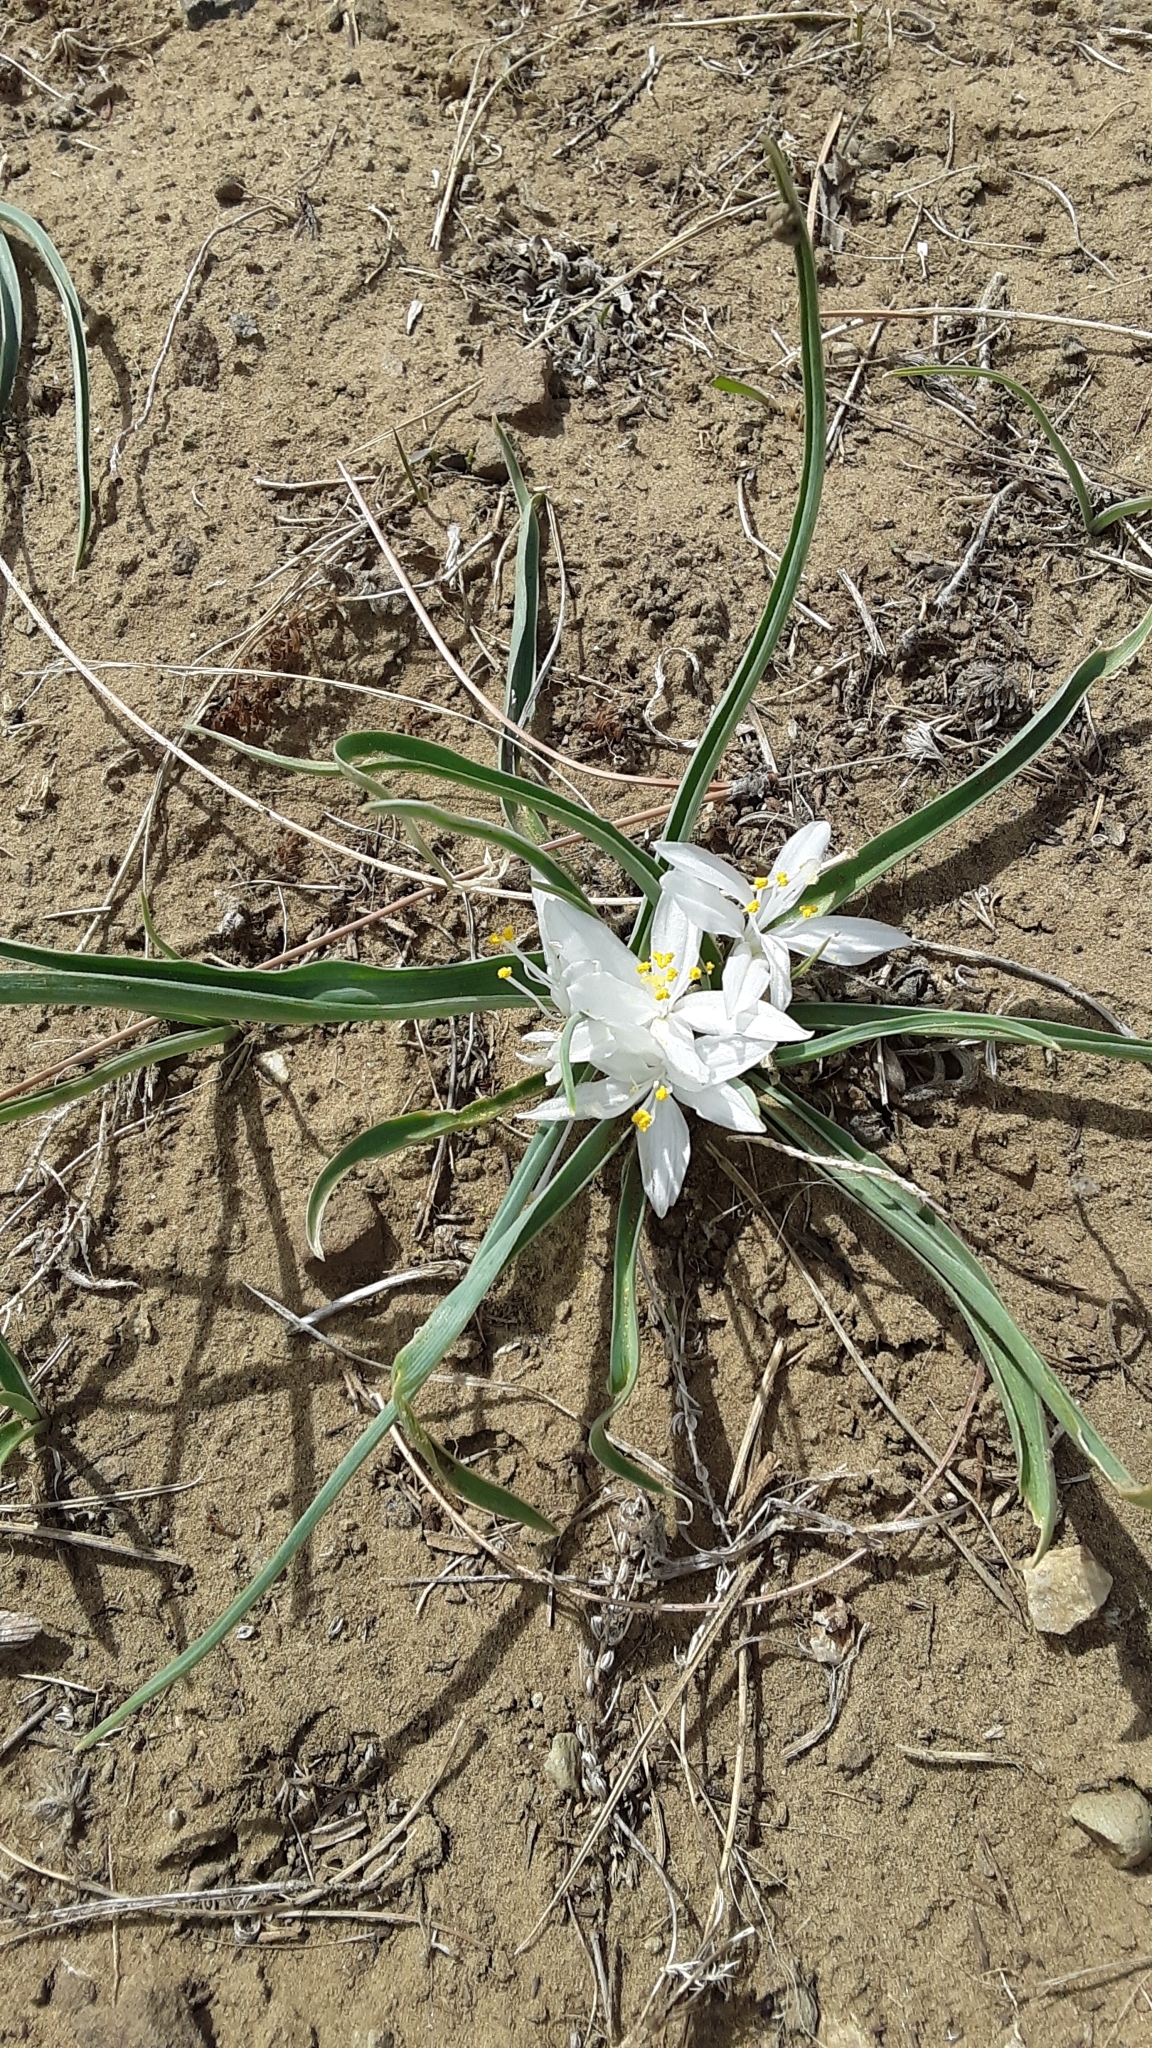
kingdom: Plantae
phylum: Tracheophyta
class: Liliopsida
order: Asparagales
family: Asparagaceae
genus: Leucocrinum
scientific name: Leucocrinum montanum
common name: Mountain-lily
